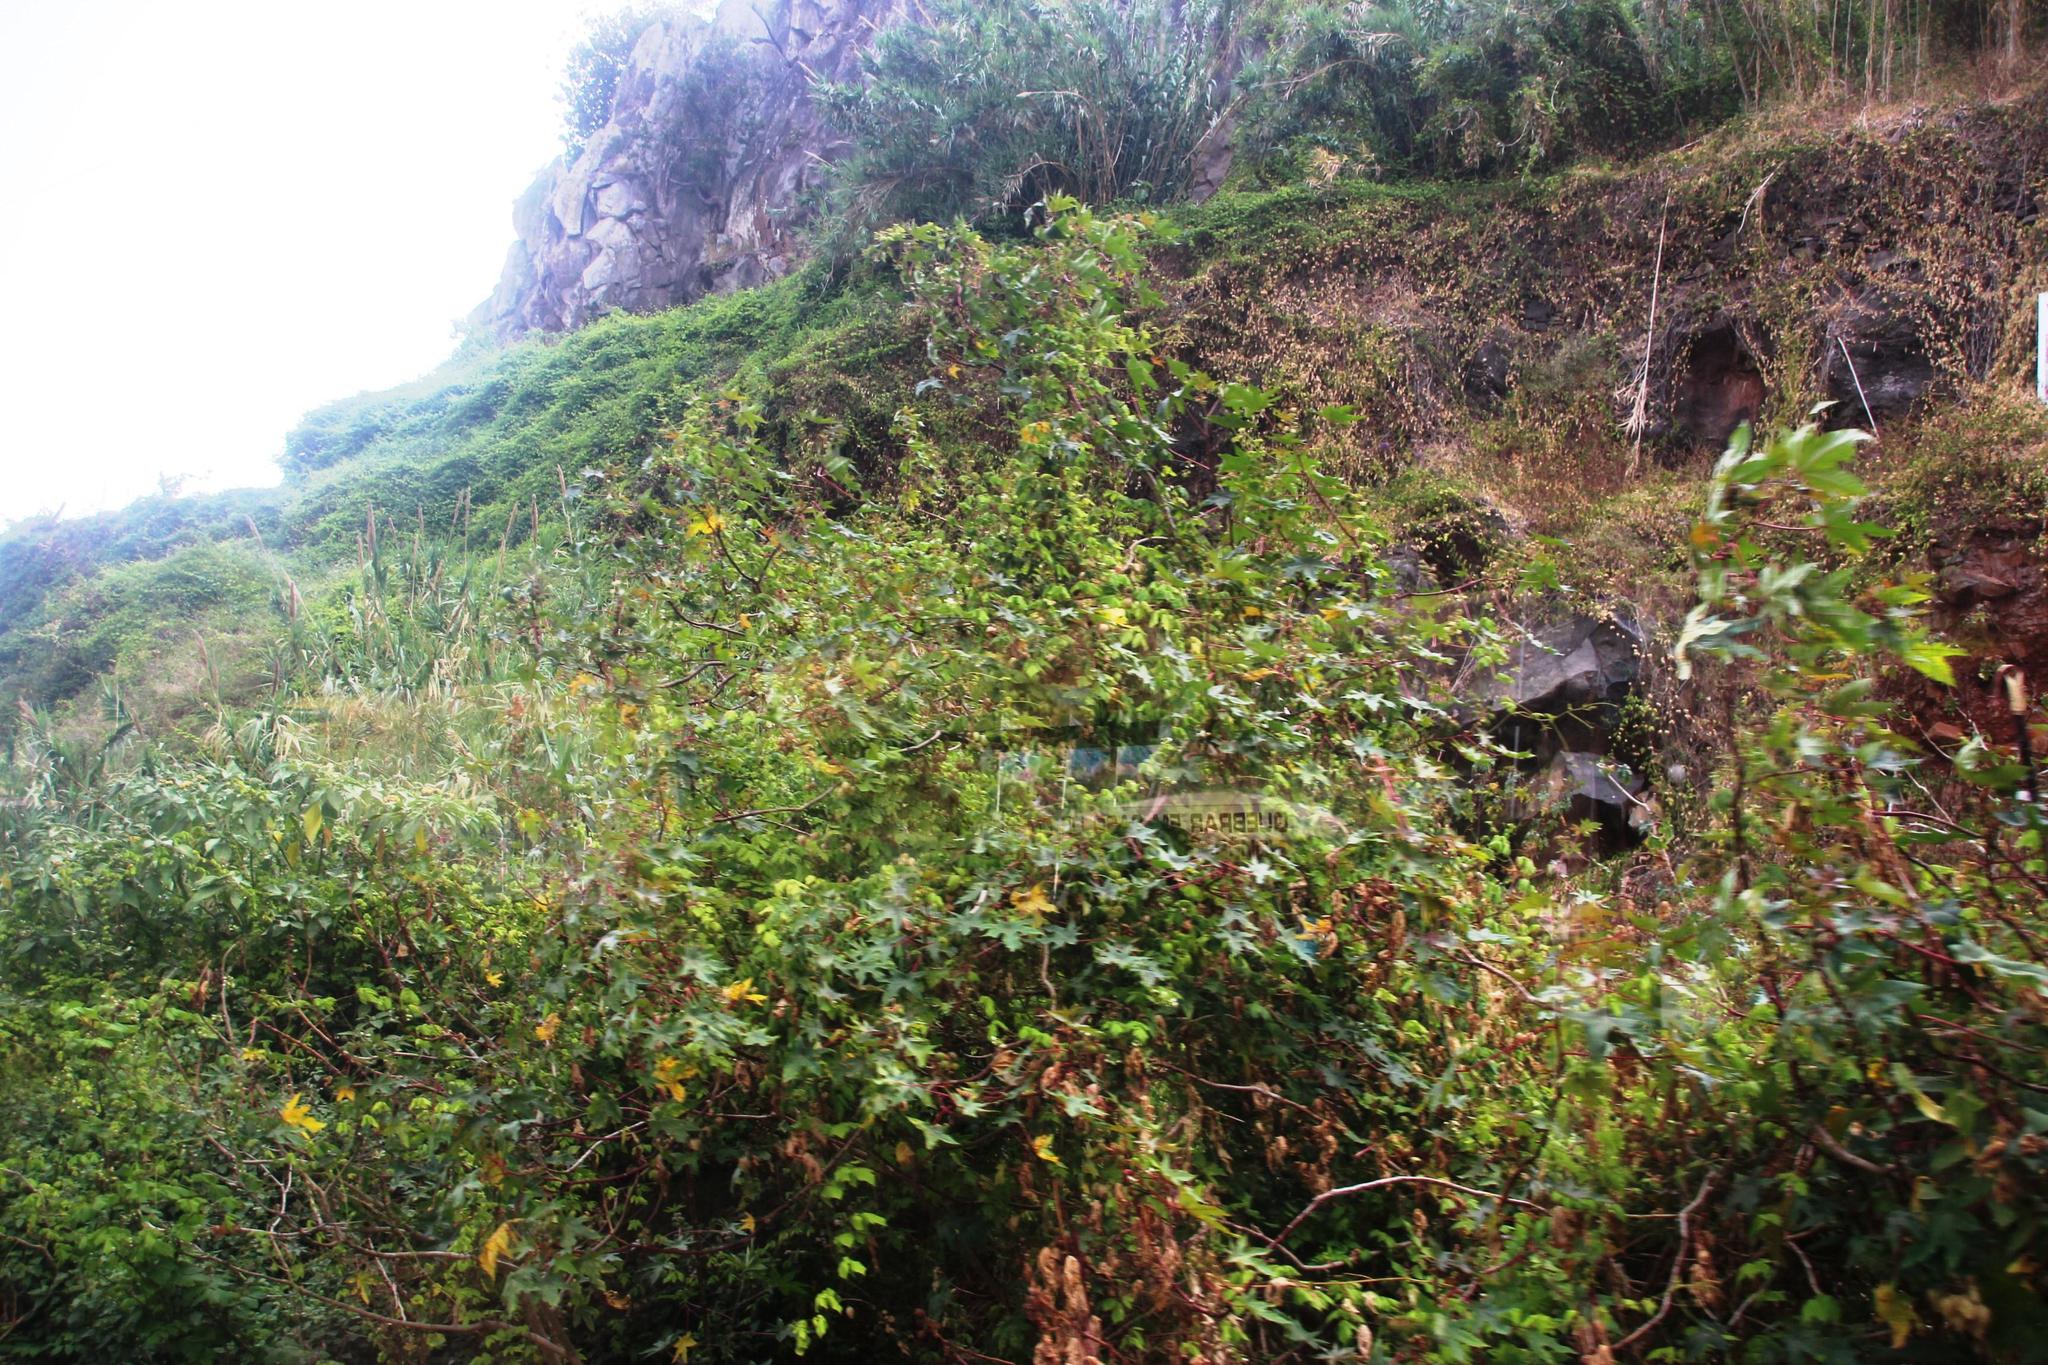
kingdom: Plantae
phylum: Tracheophyta
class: Magnoliopsida
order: Malpighiales
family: Euphorbiaceae
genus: Ricinus
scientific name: Ricinus communis
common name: Castor-oil-plant
